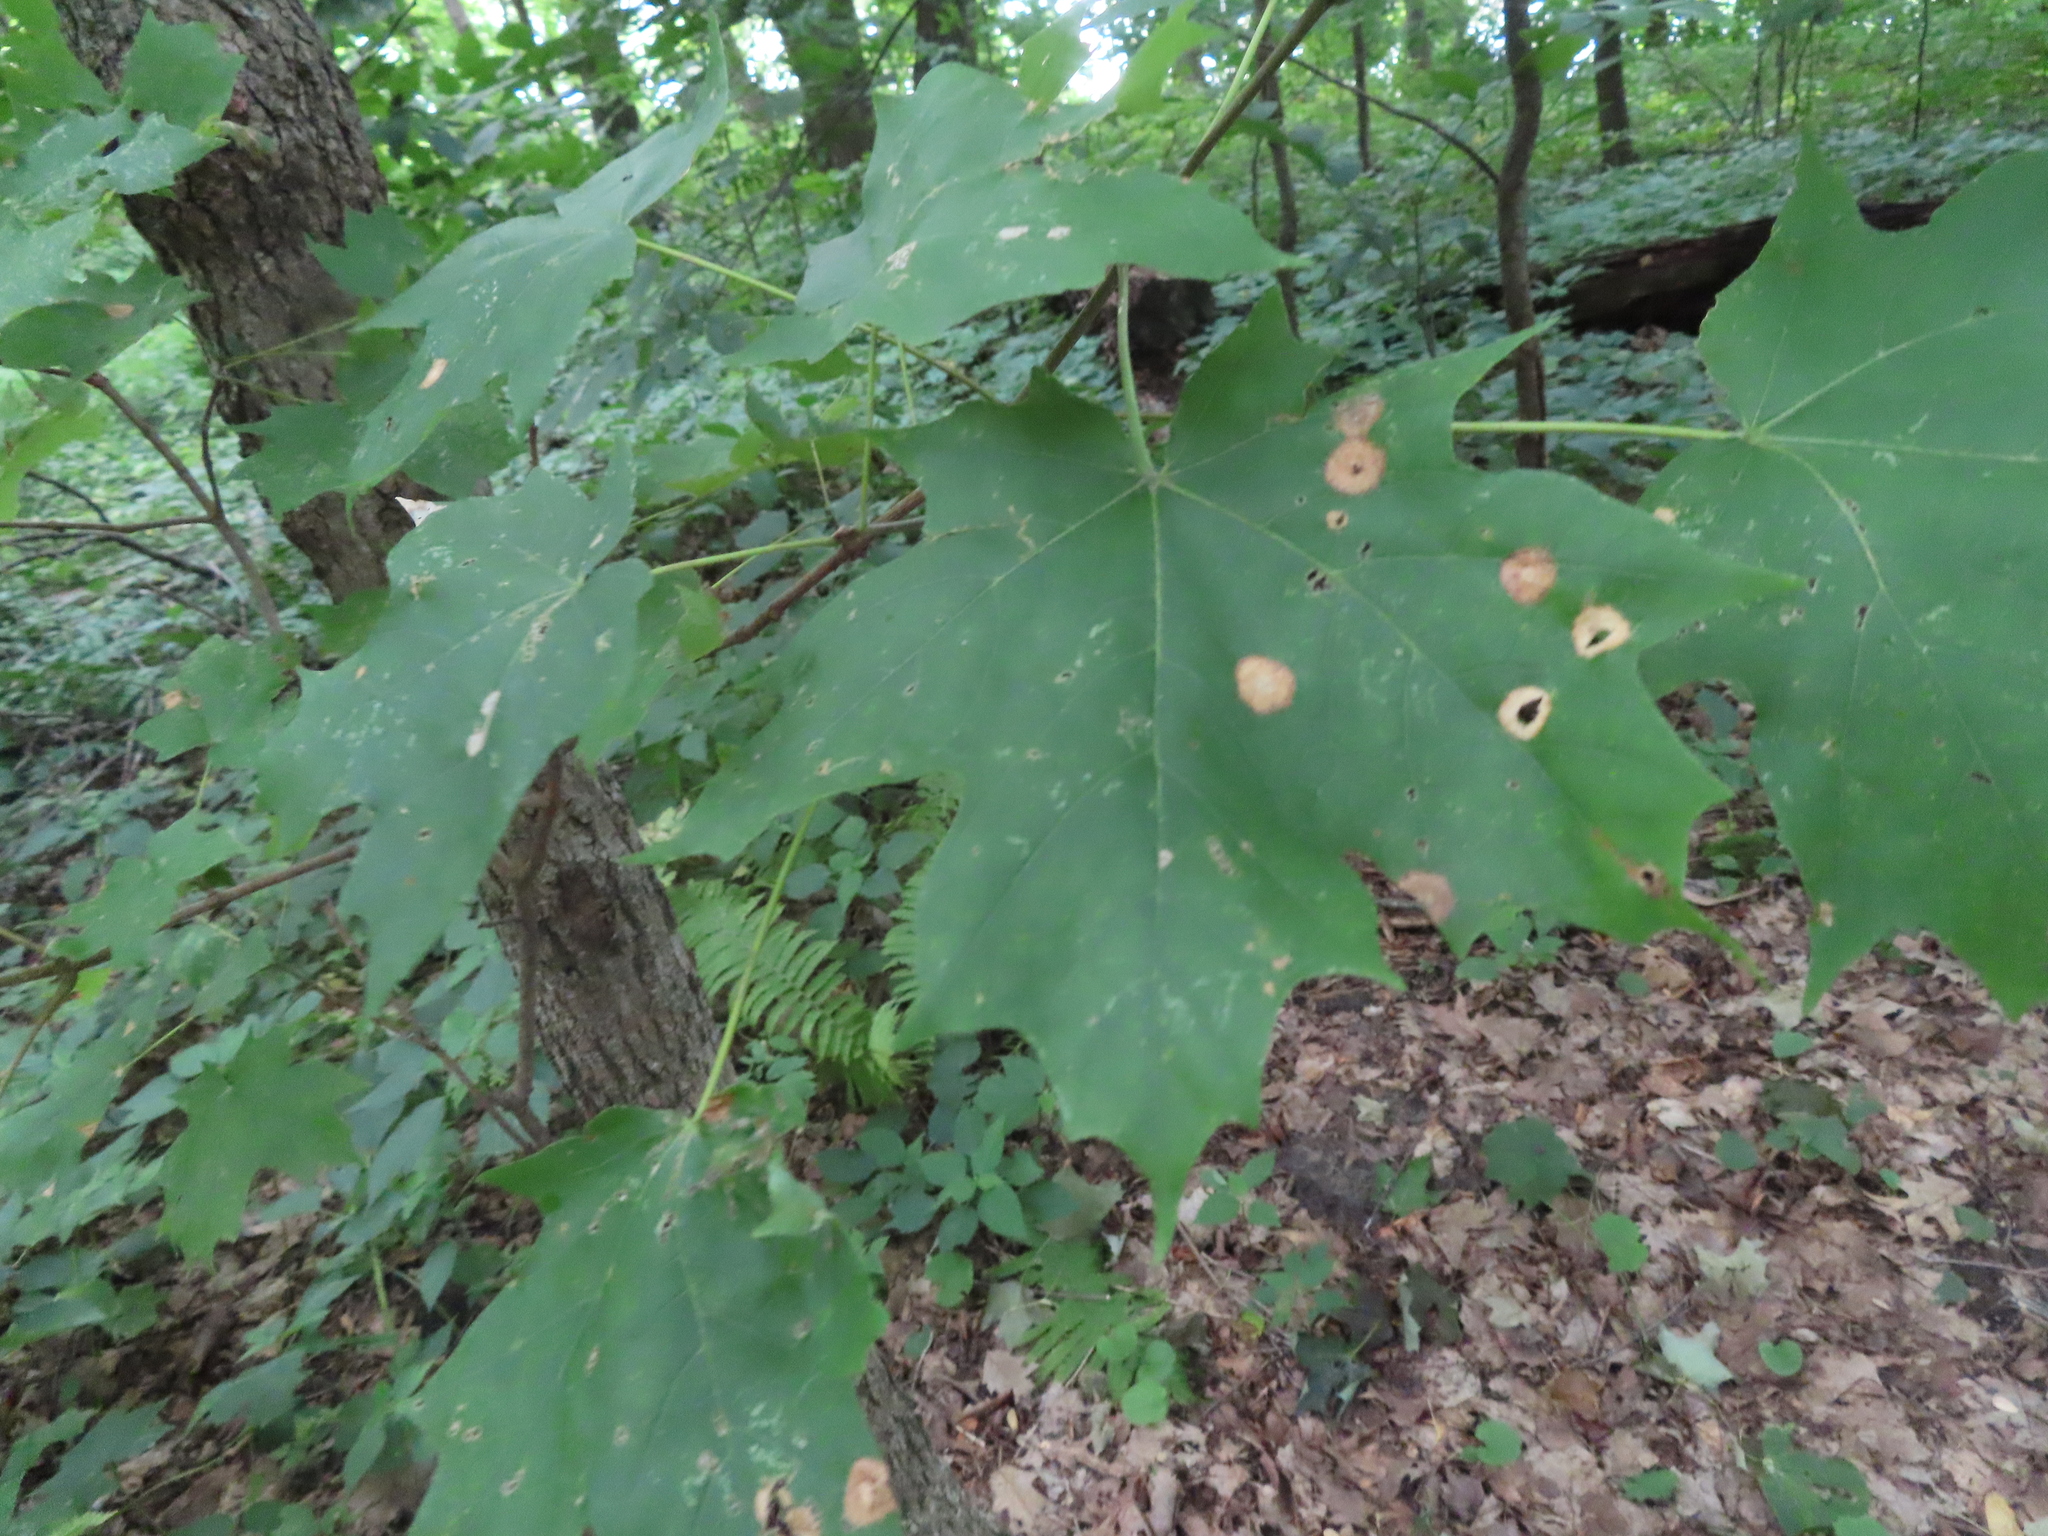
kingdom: Animalia
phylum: Arthropoda
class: Insecta
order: Diptera
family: Cecidomyiidae
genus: Acericecis
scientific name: Acericecis ocellaris
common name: Ocellate gall midge
